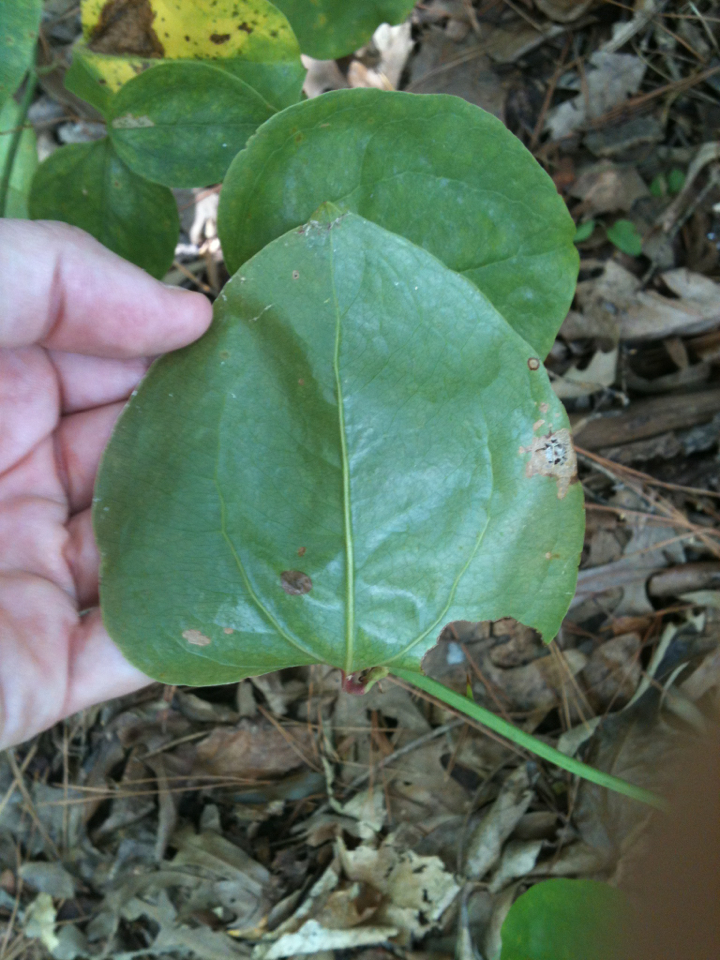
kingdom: Plantae
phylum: Tracheophyta
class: Liliopsida
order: Liliales
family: Smilacaceae
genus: Smilax
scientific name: Smilax rotundifolia
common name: Bullbriar
